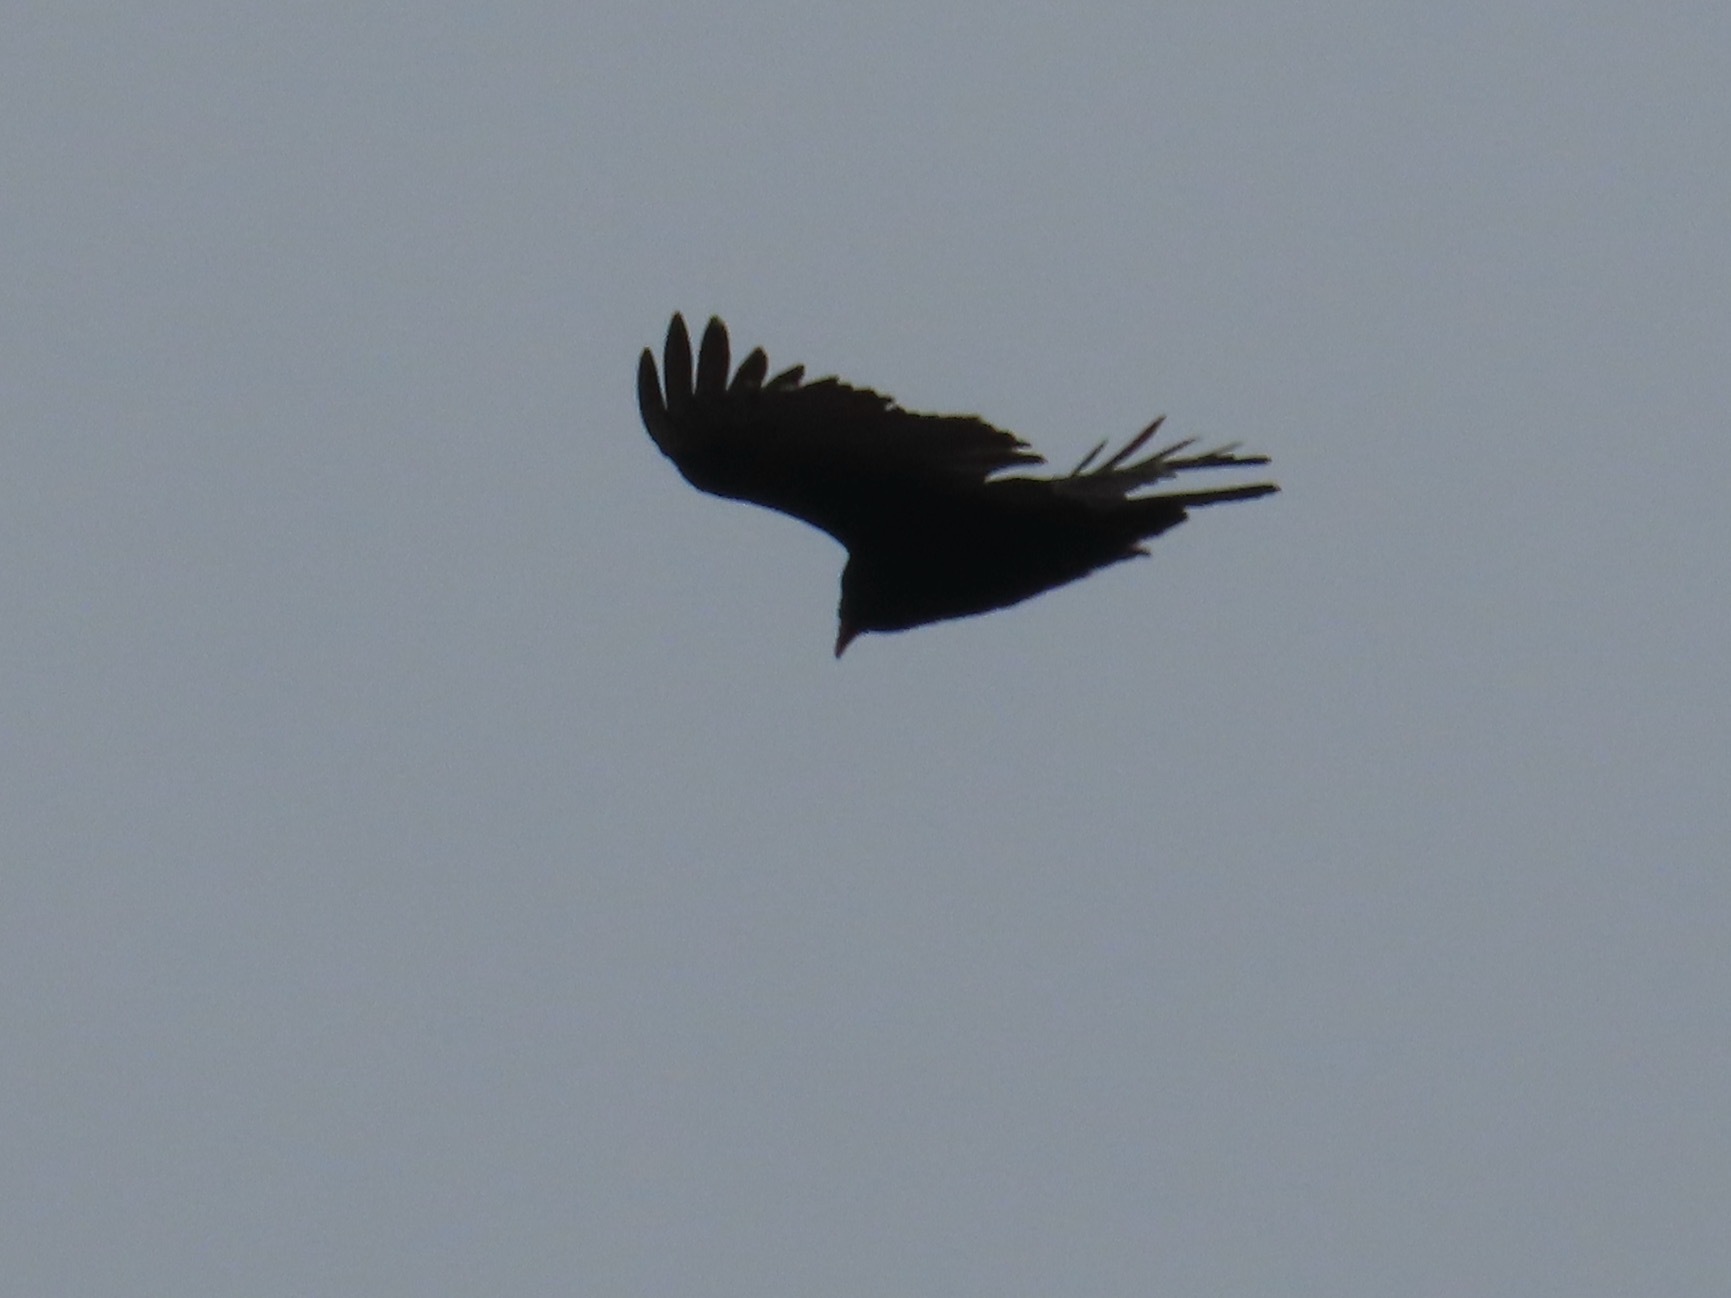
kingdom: Animalia
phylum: Chordata
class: Aves
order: Accipitriformes
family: Cathartidae
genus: Cathartes
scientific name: Cathartes aura
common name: Turkey vulture
